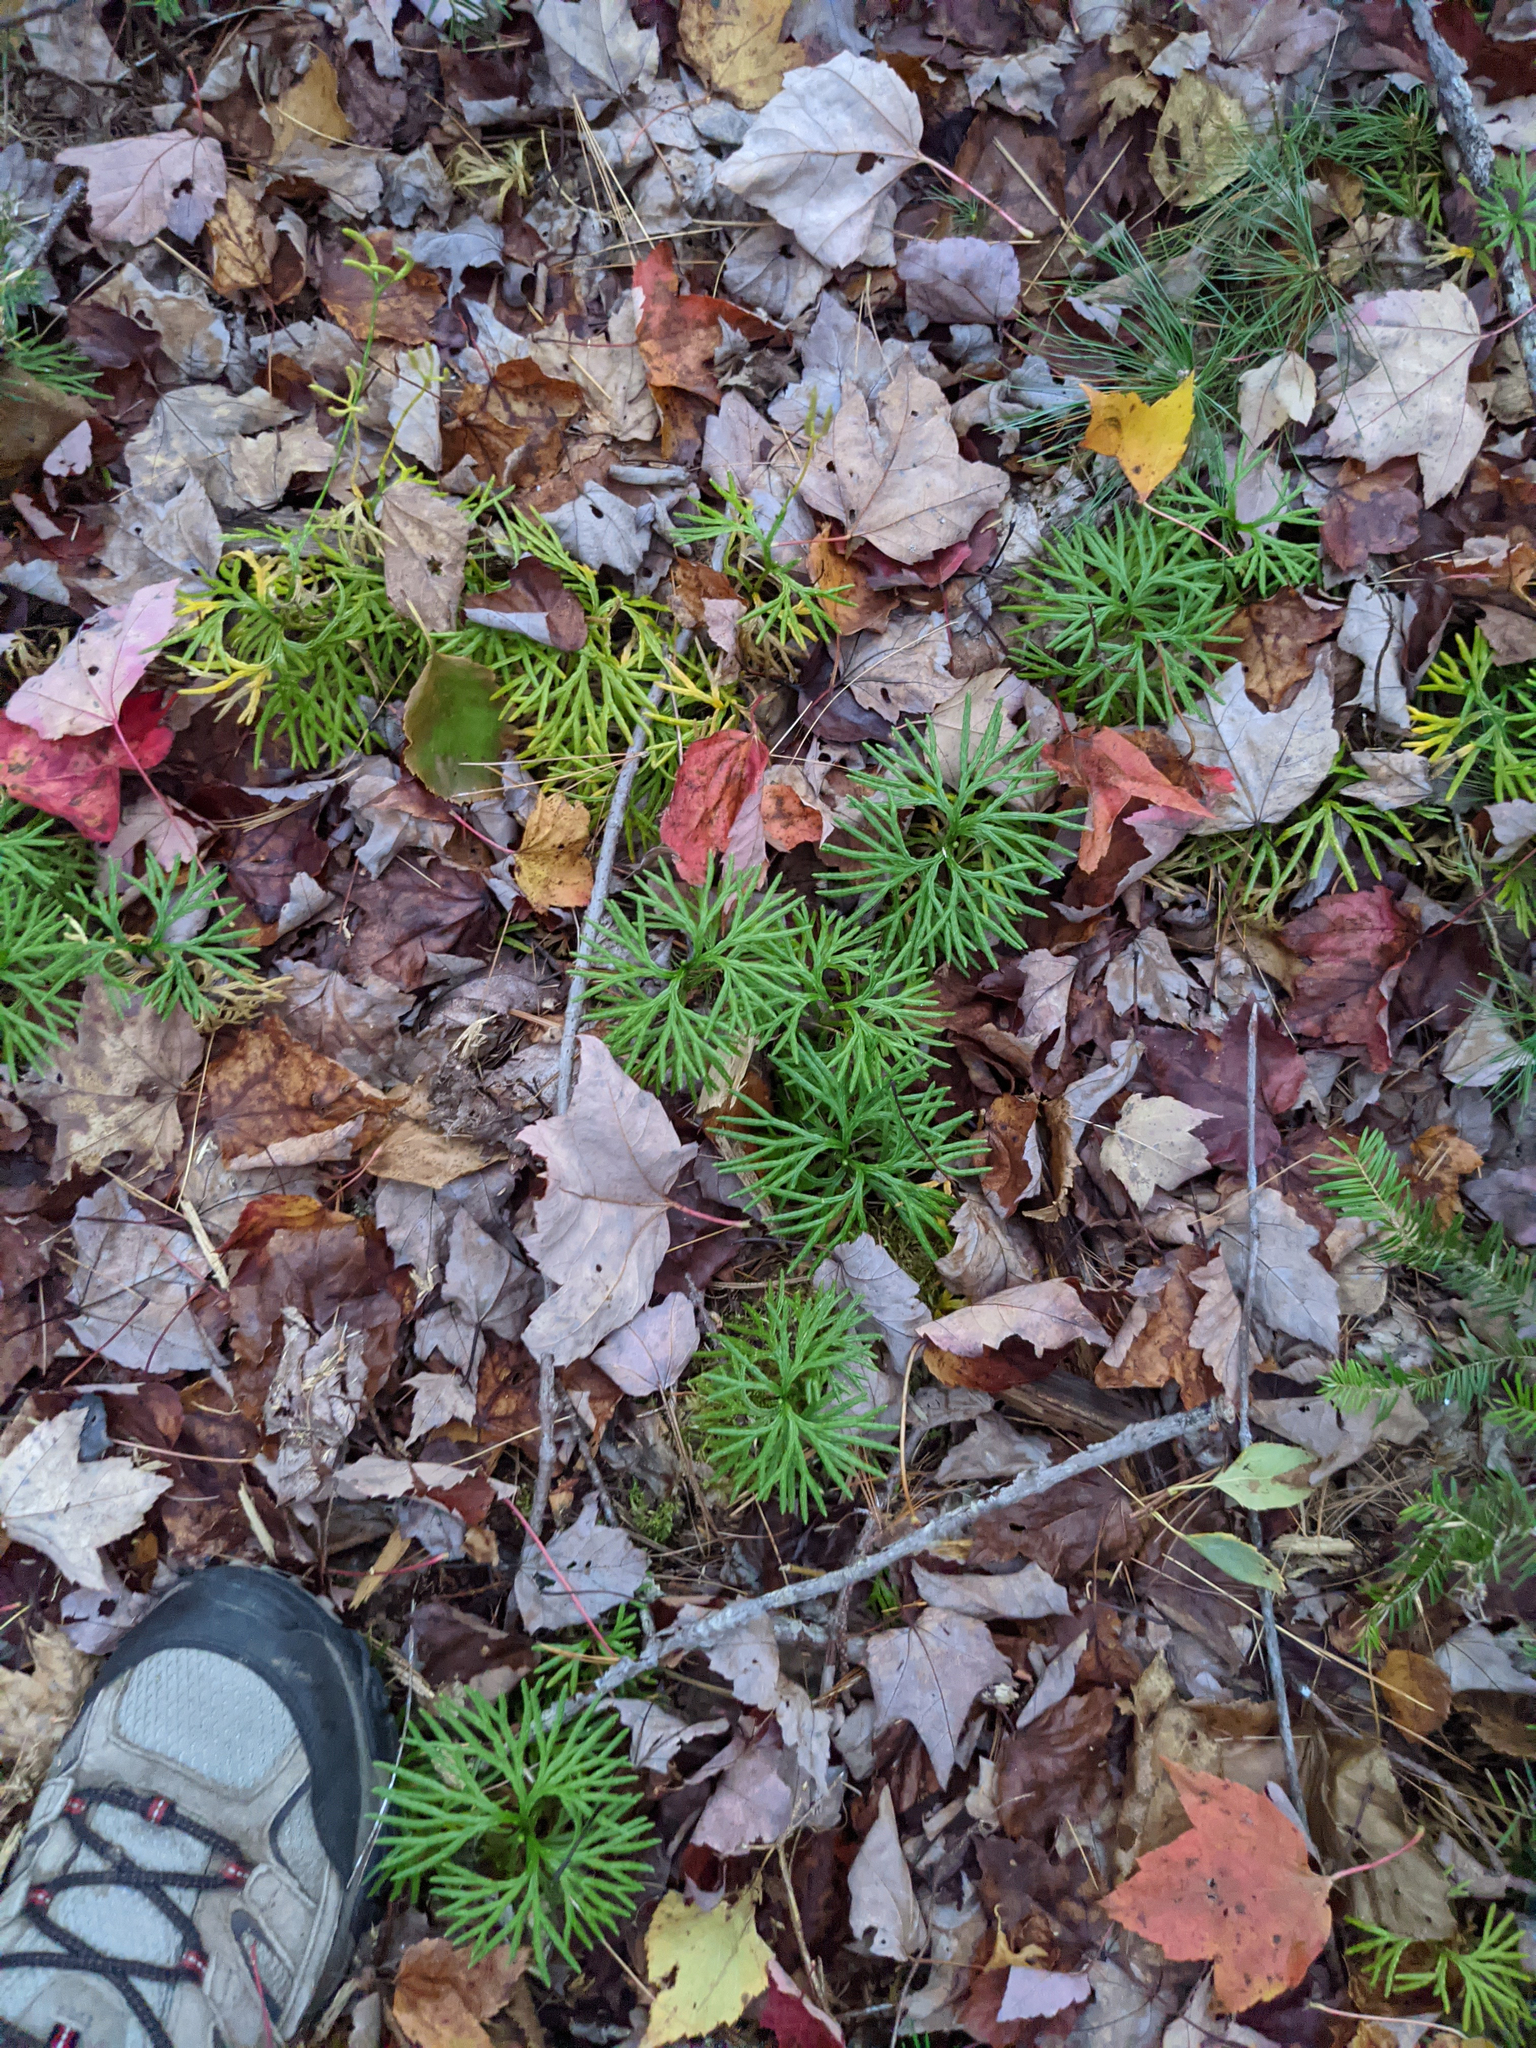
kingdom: Plantae
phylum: Tracheophyta
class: Lycopodiopsida
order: Lycopodiales
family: Lycopodiaceae
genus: Diphasiastrum
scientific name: Diphasiastrum digitatum
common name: Southern running-pine
